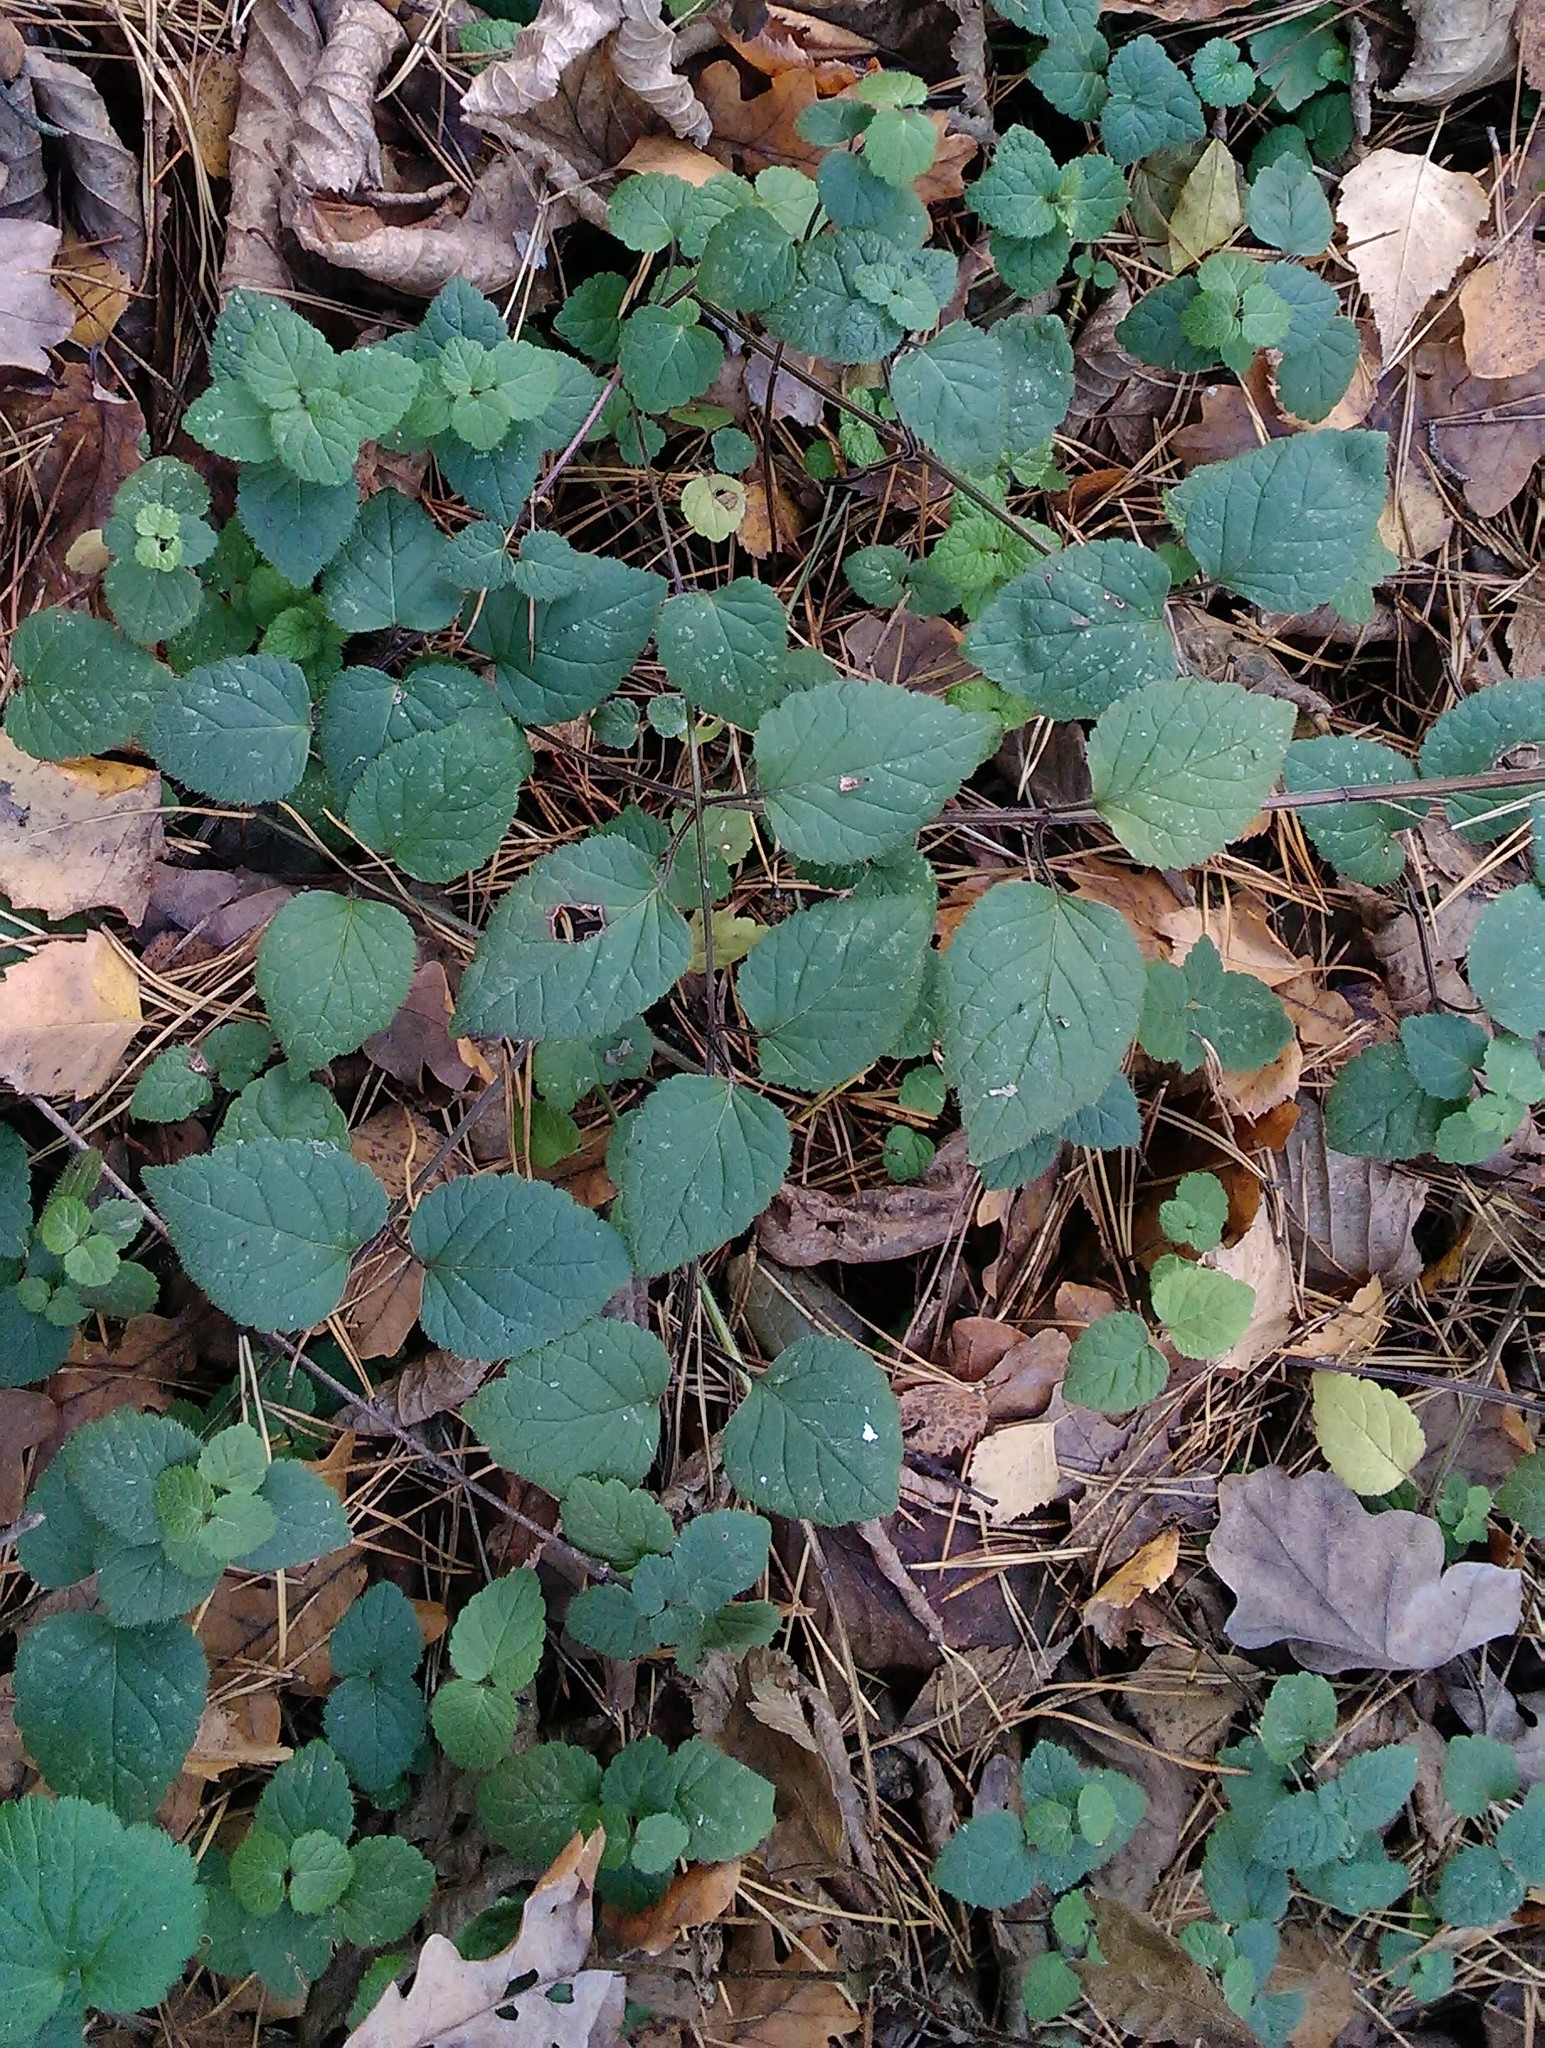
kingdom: Plantae
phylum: Tracheophyta
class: Magnoliopsida
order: Lamiales
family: Lamiaceae
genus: Lamium
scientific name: Lamium galeobdolon
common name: Yellow archangel
